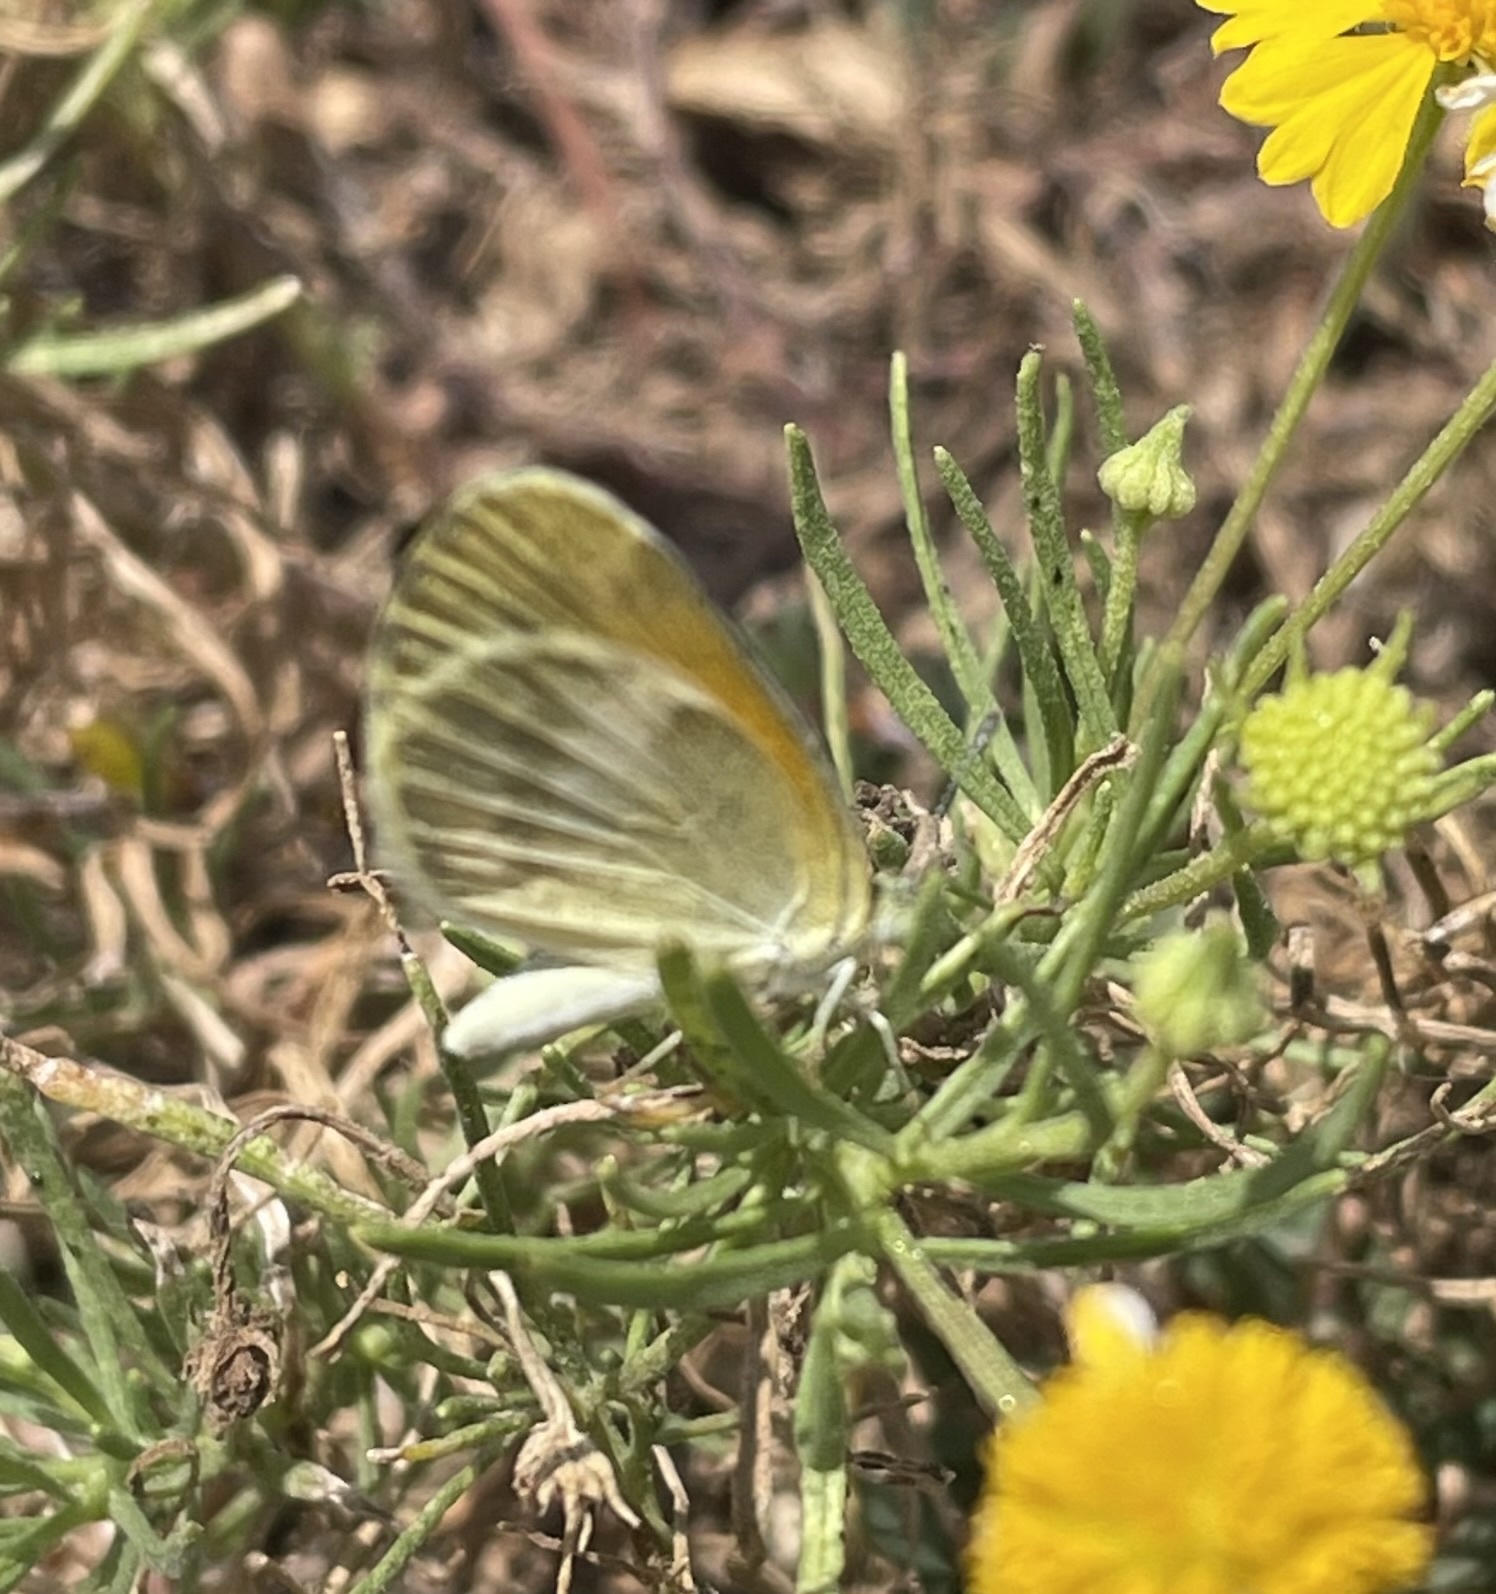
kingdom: Animalia
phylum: Arthropoda
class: Insecta
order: Lepidoptera
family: Pieridae
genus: Nathalis
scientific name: Nathalis iole
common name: Dainty sulphur
